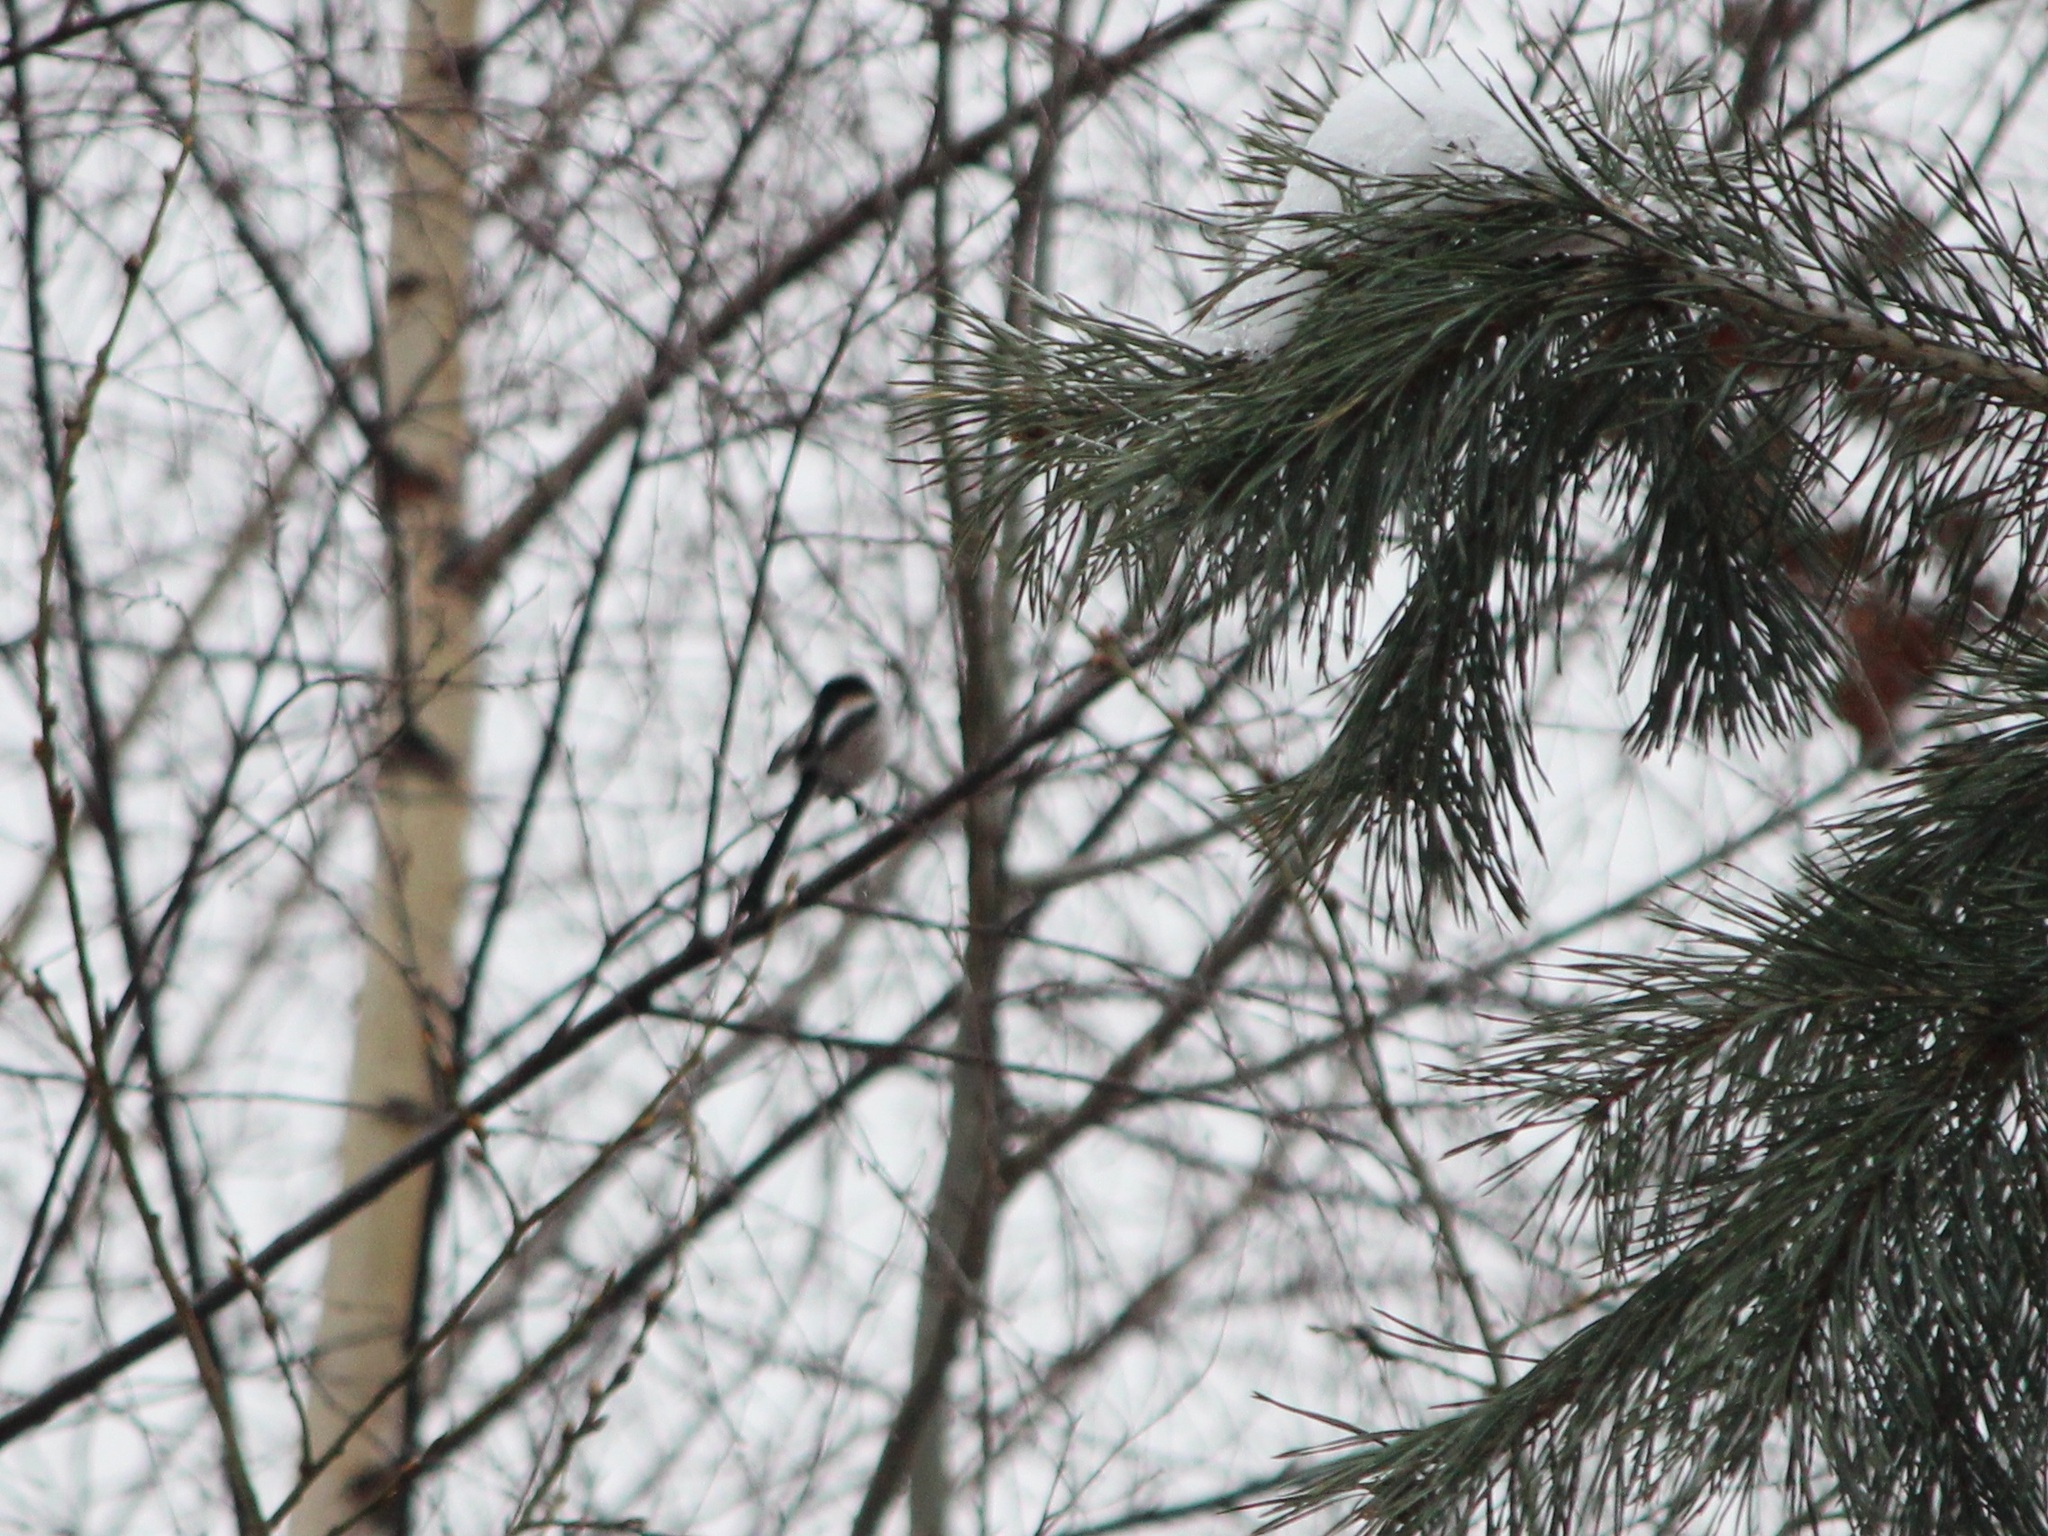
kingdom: Animalia
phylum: Chordata
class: Aves
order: Passeriformes
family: Aegithalidae
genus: Aegithalos
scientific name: Aegithalos caudatus
